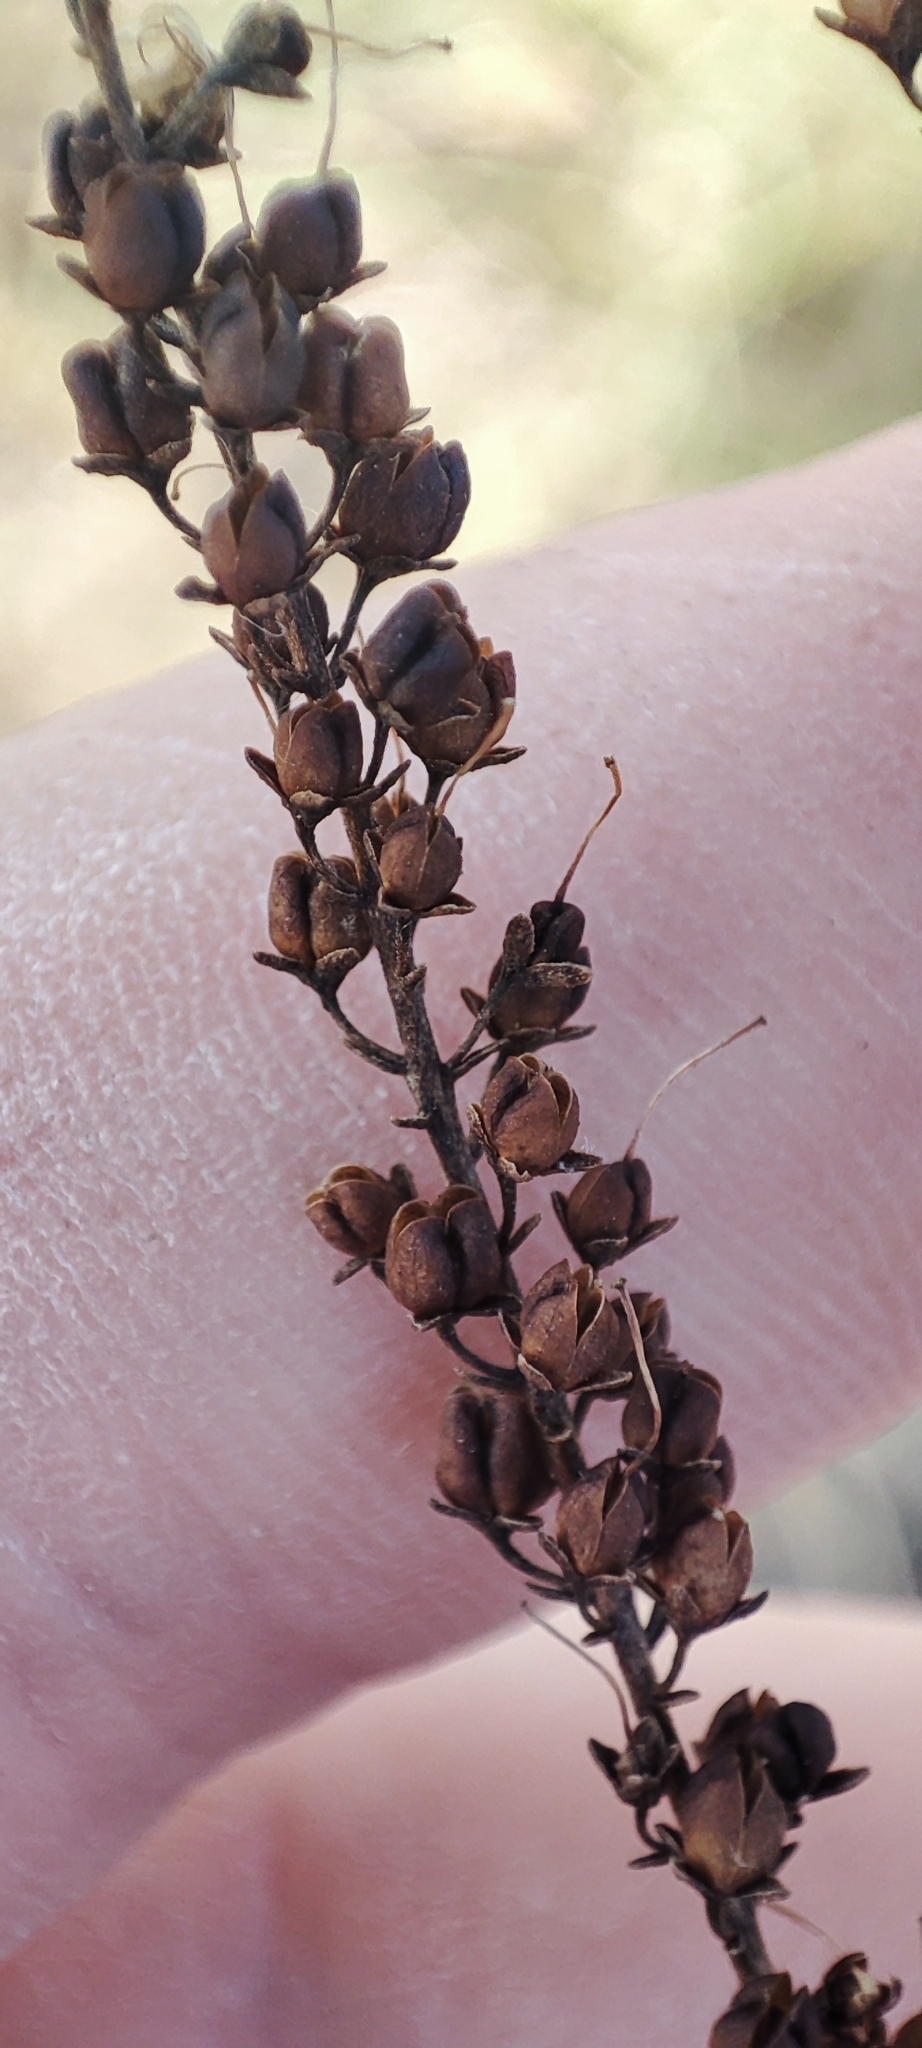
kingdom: Plantae
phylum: Tracheophyta
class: Magnoliopsida
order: Lamiales
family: Plantaginaceae
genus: Veronica
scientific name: Veronica spuria
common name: Bastard speedwell
